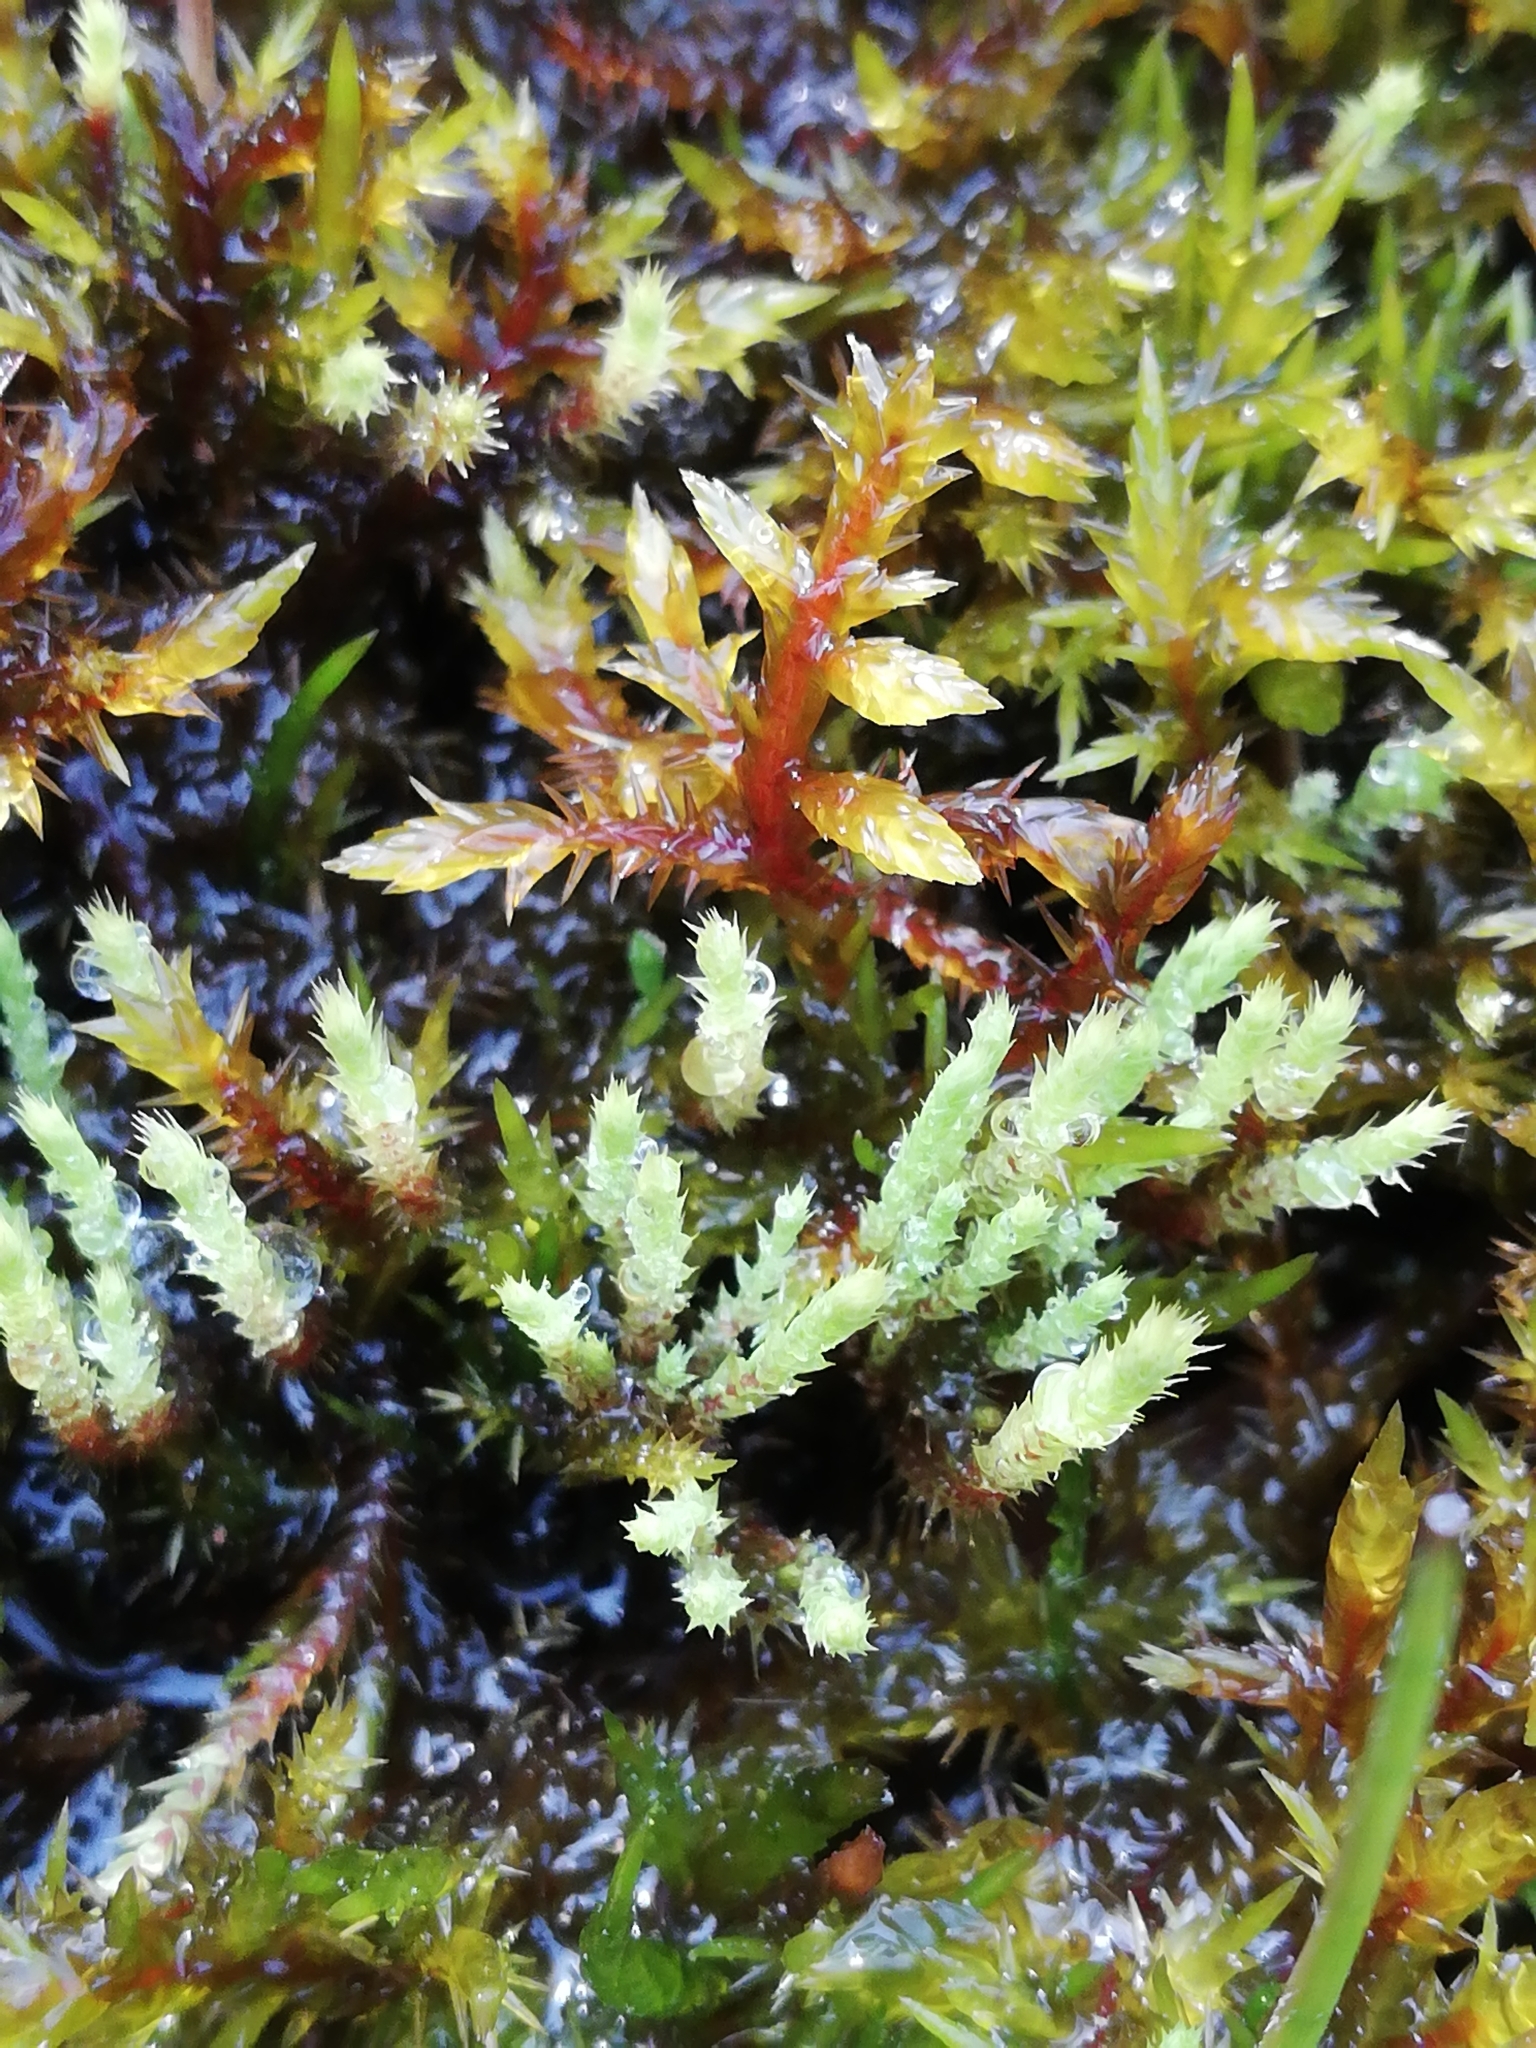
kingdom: Plantae
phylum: Bryophyta
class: Bryopsida
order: Bartramiales
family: Bartramiaceae
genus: Philonotis
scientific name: Philonotis fontana
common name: Fountain apple-moss
